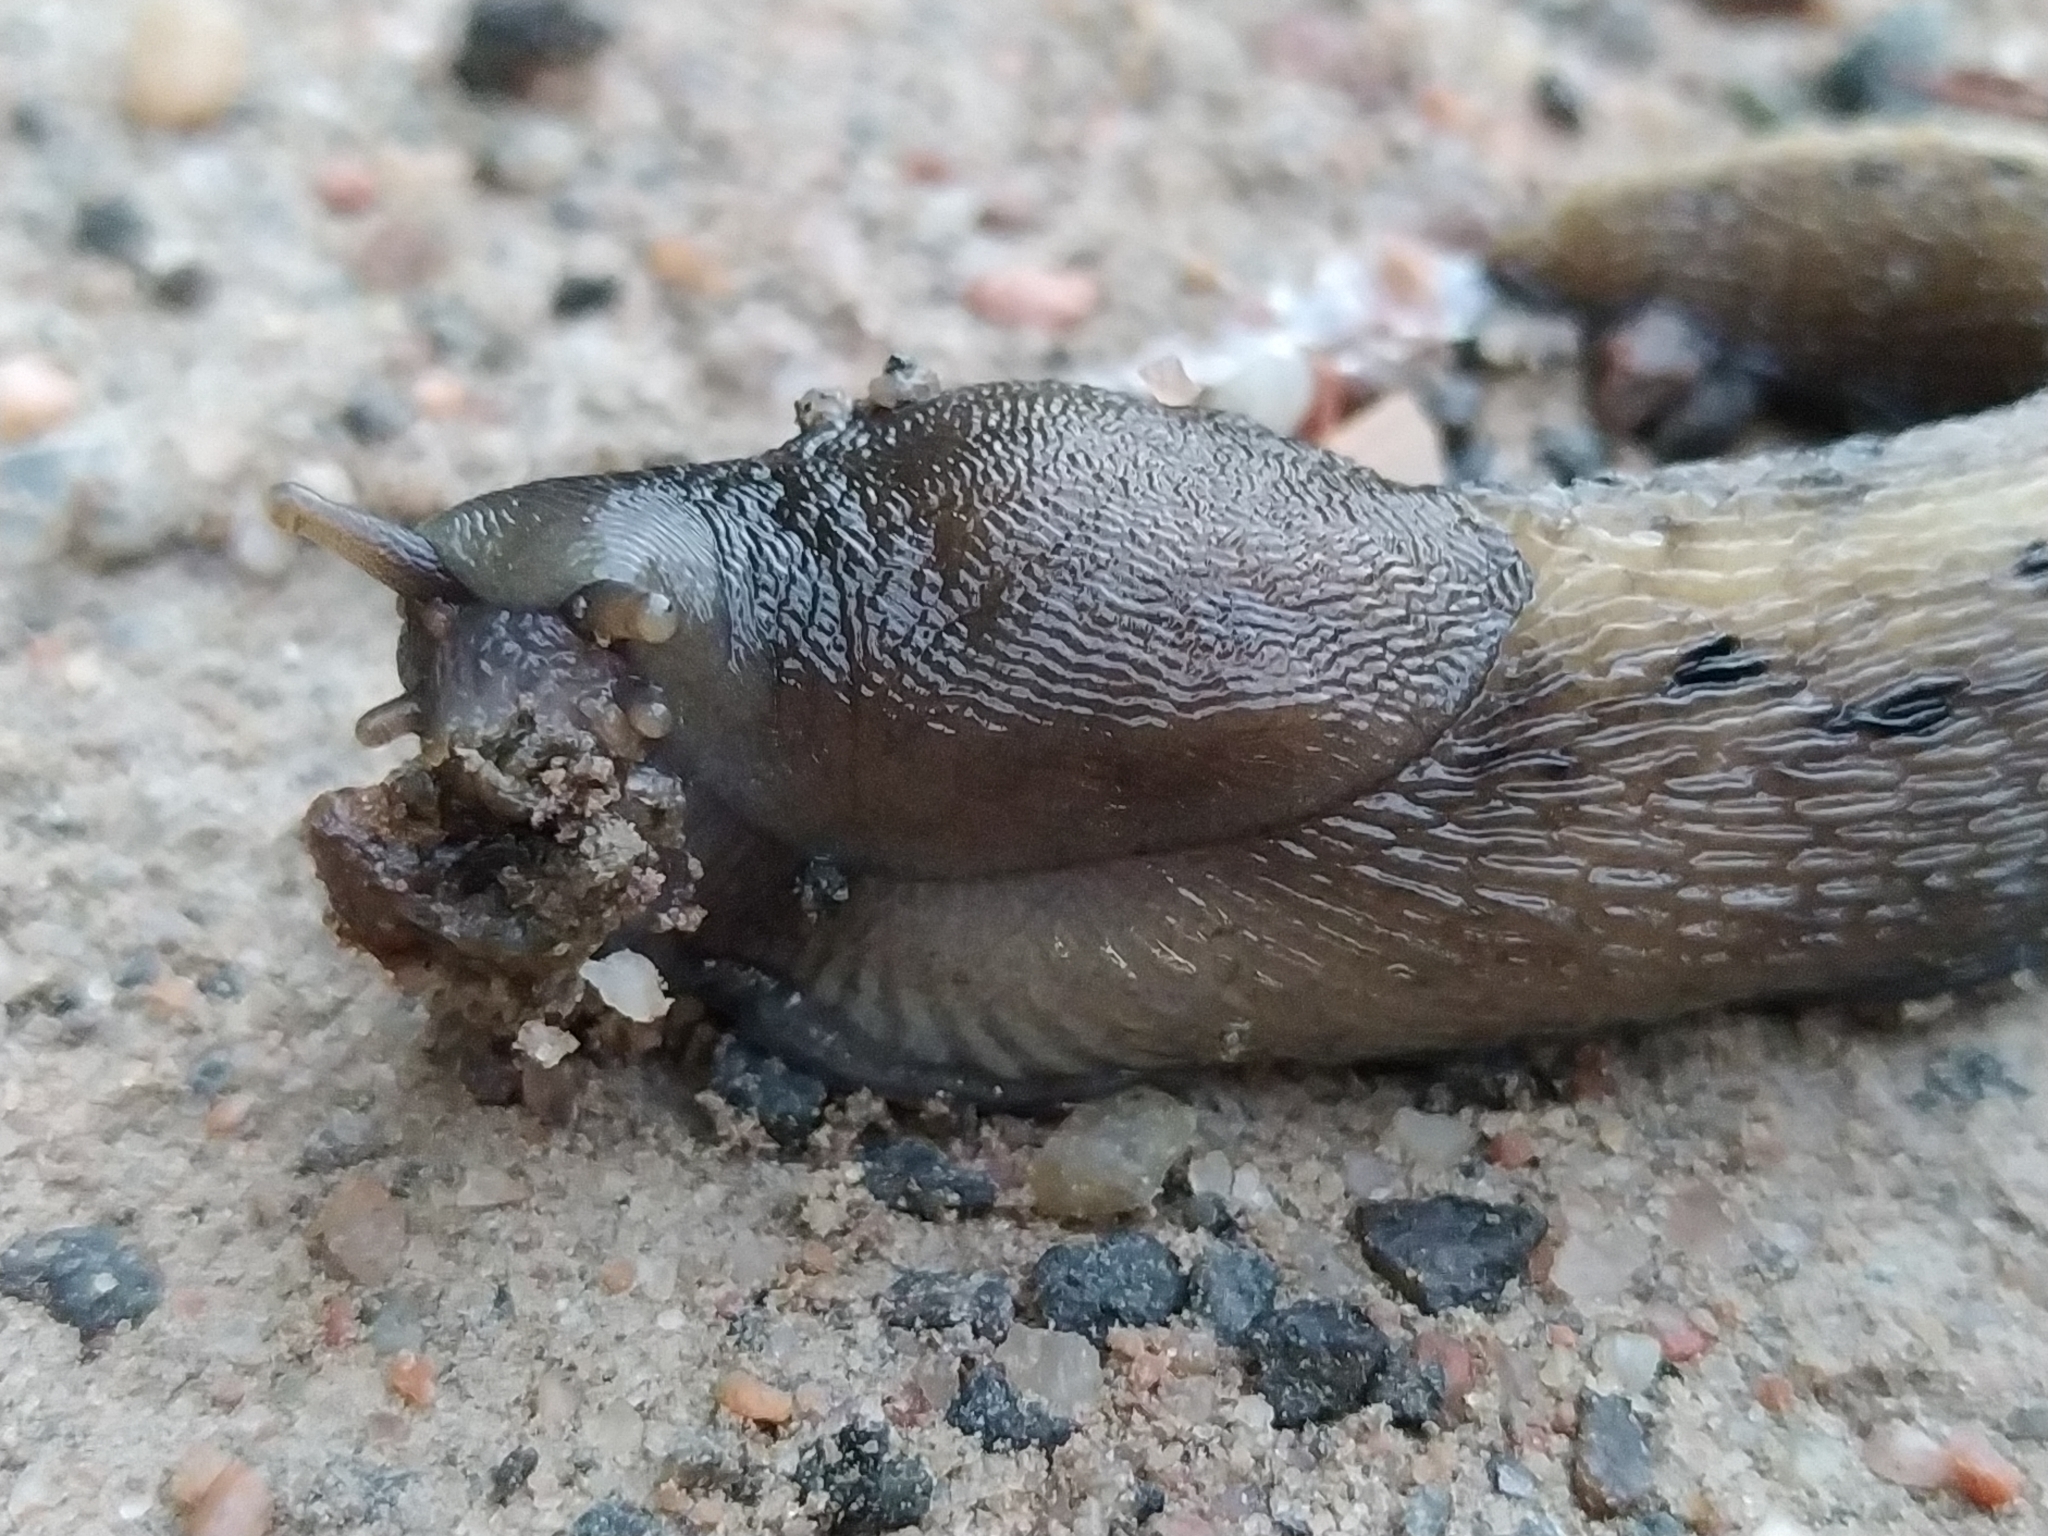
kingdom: Animalia
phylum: Mollusca
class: Gastropoda
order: Stylommatophora
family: Limacidae
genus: Limax
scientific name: Limax cinereoniger
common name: Ash-black slug
